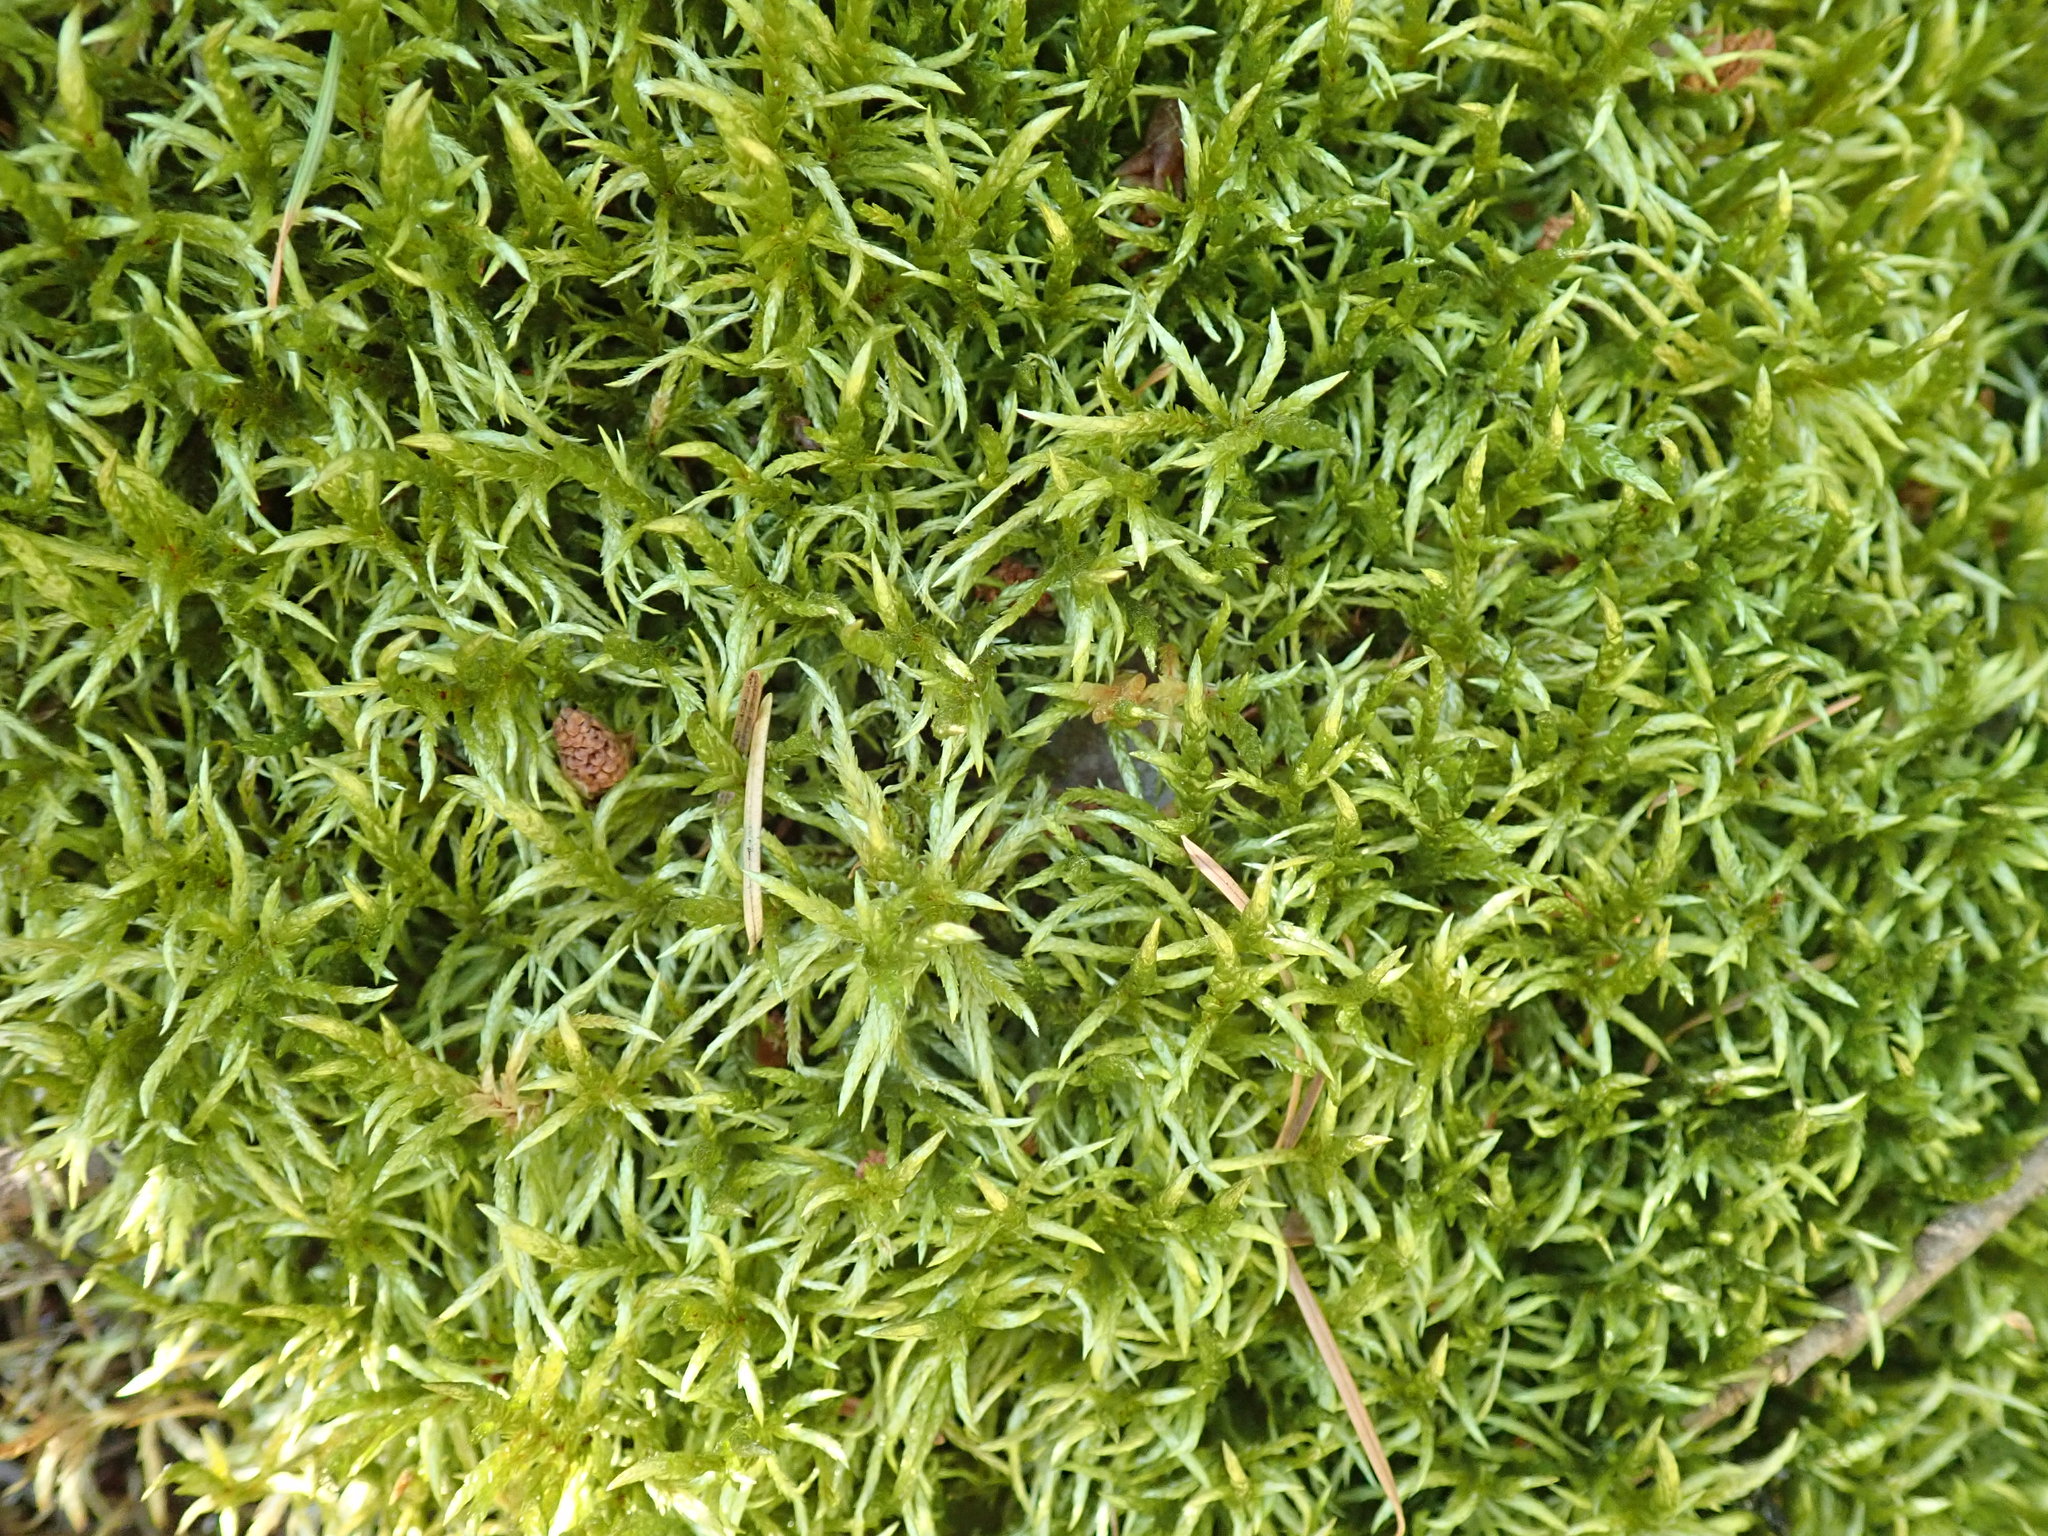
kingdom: Plantae
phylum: Bryophyta
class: Bryopsida
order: Hypnales
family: Hylocomiaceae
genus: Pleurozium
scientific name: Pleurozium schreberi
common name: Red-stemmed feather moss
